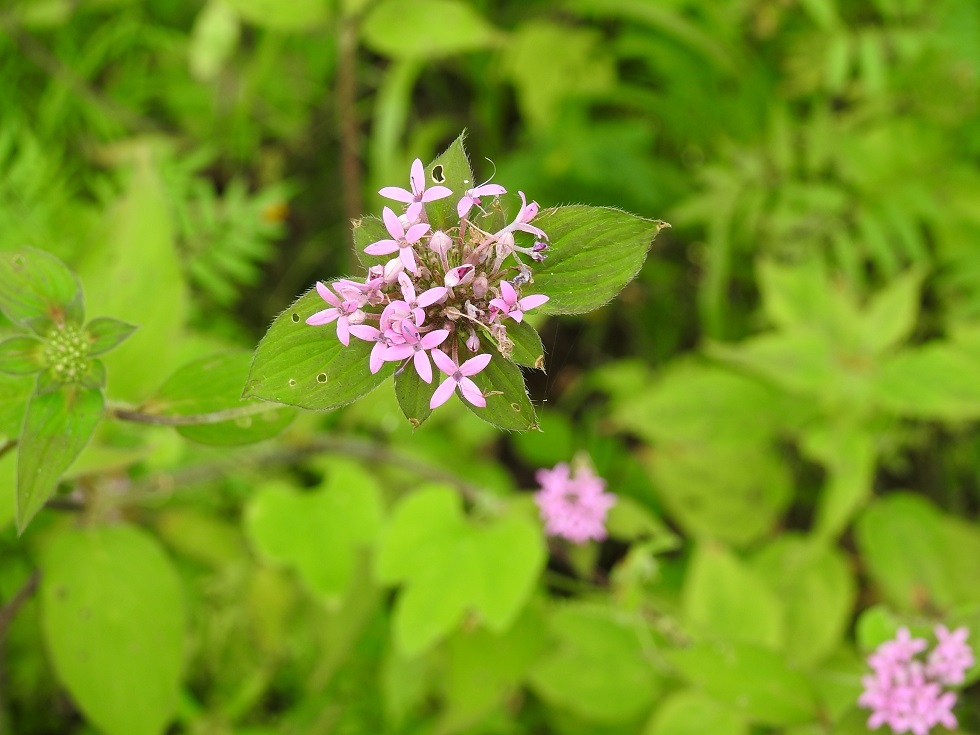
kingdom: Plantae
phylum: Tracheophyta
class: Magnoliopsida
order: Gentianales
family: Rubiaceae
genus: Crusea
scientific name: Crusea hispida
